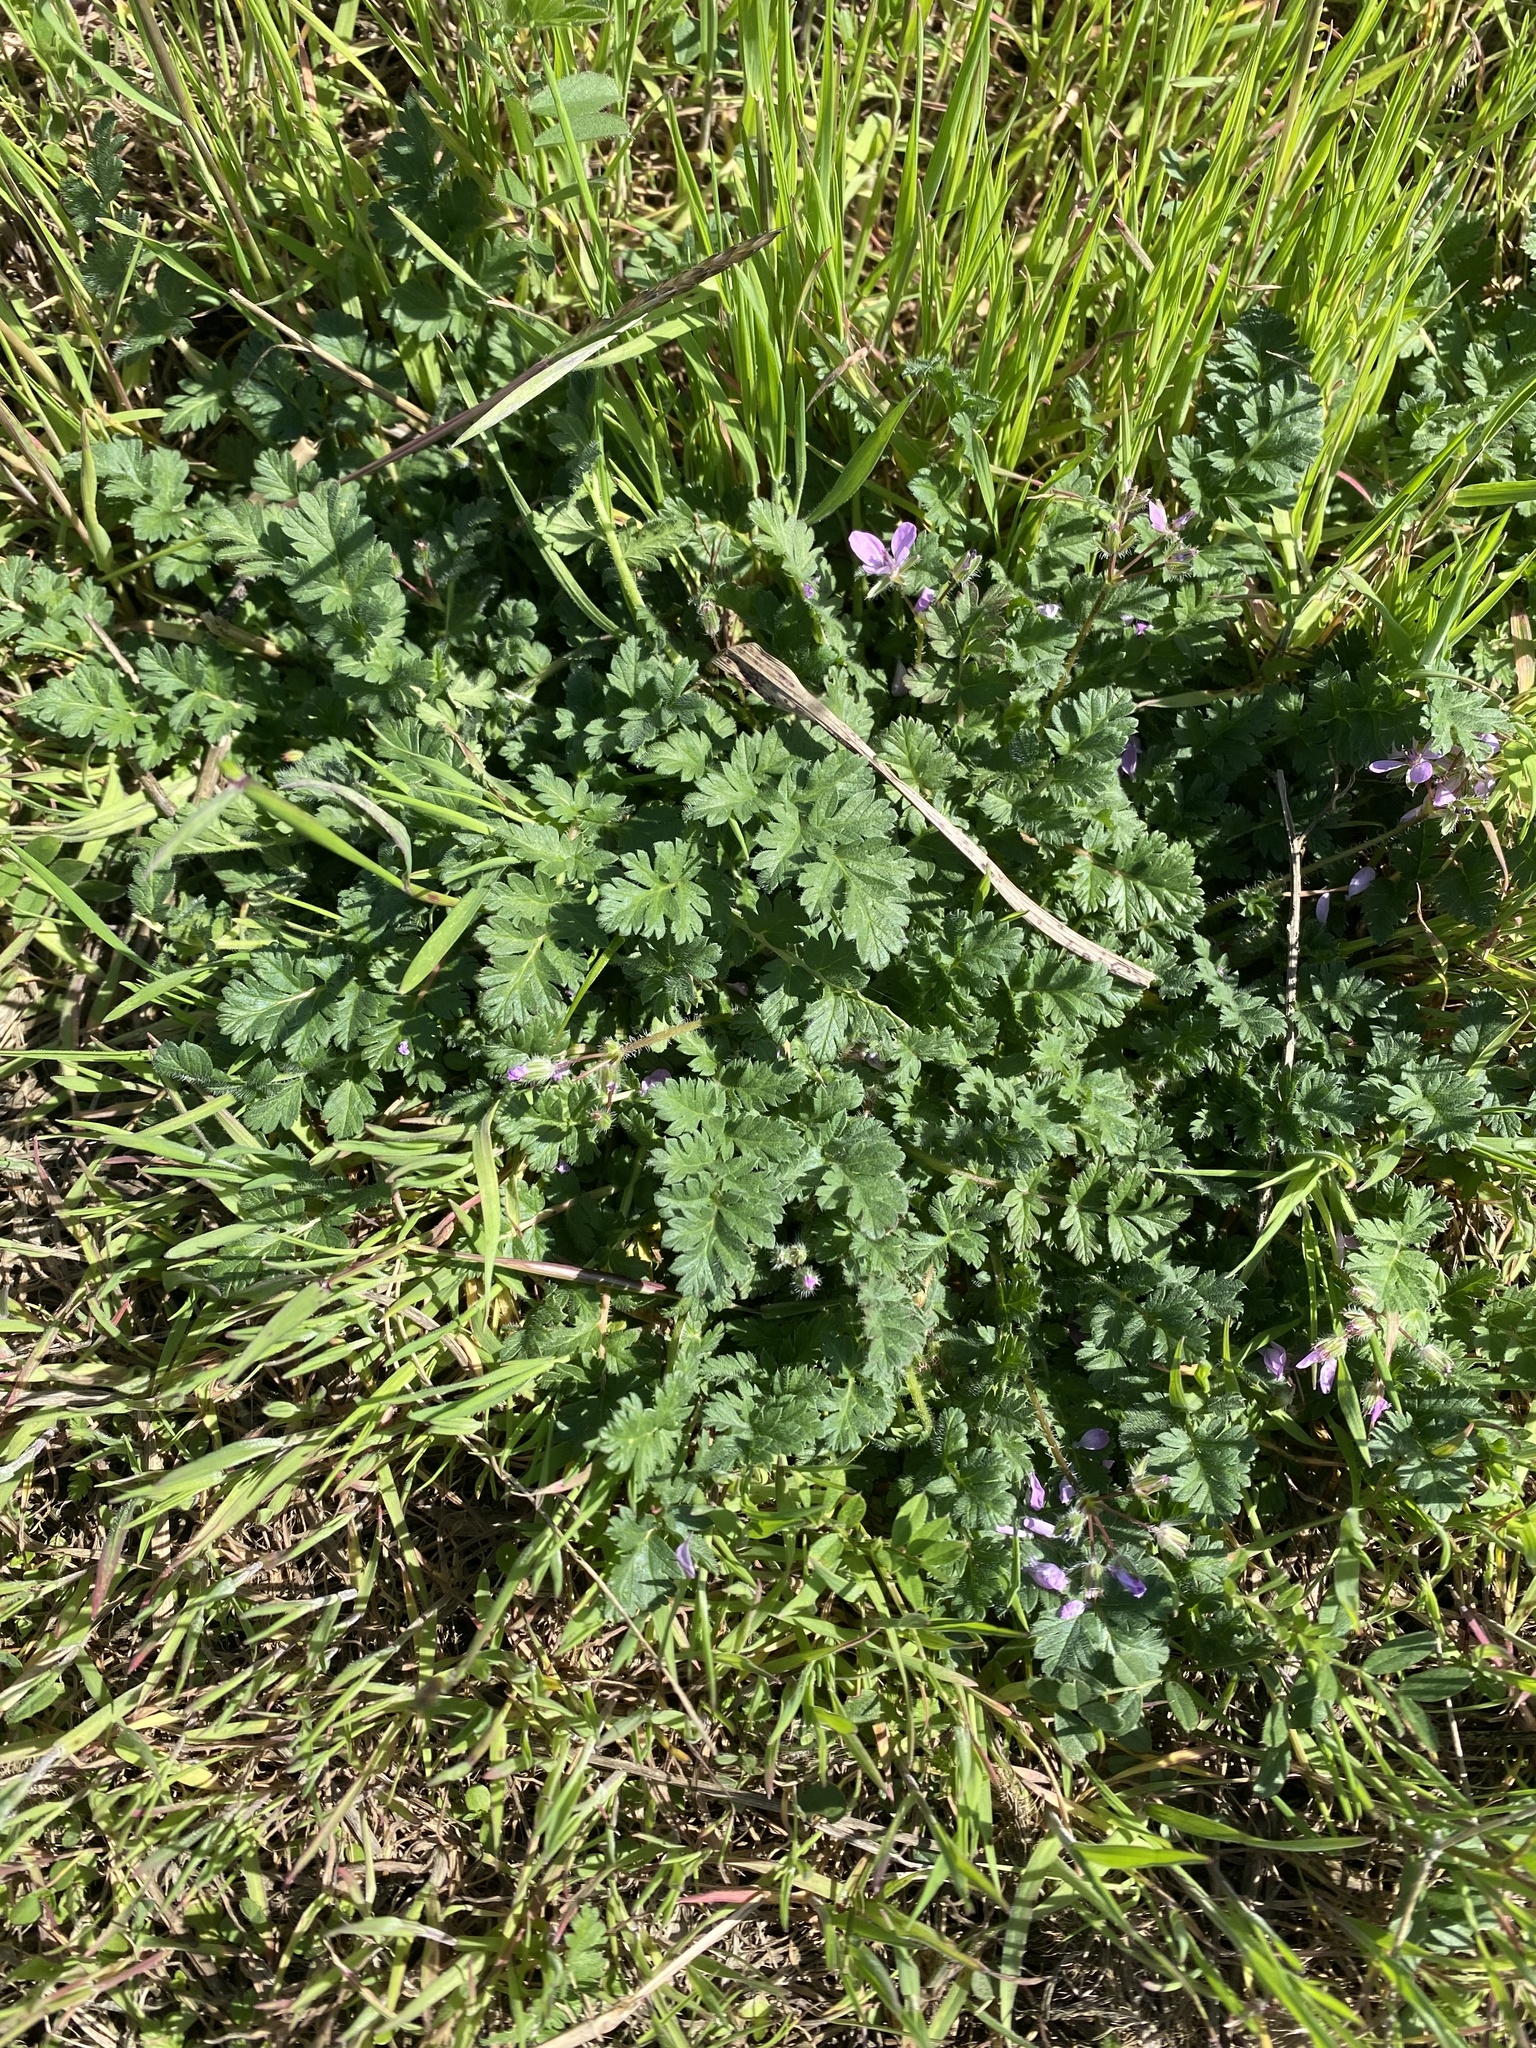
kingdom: Plantae
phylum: Tracheophyta
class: Magnoliopsida
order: Geraniales
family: Geraniaceae
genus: Erodium
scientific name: Erodium cicutarium
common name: Common stork's-bill
